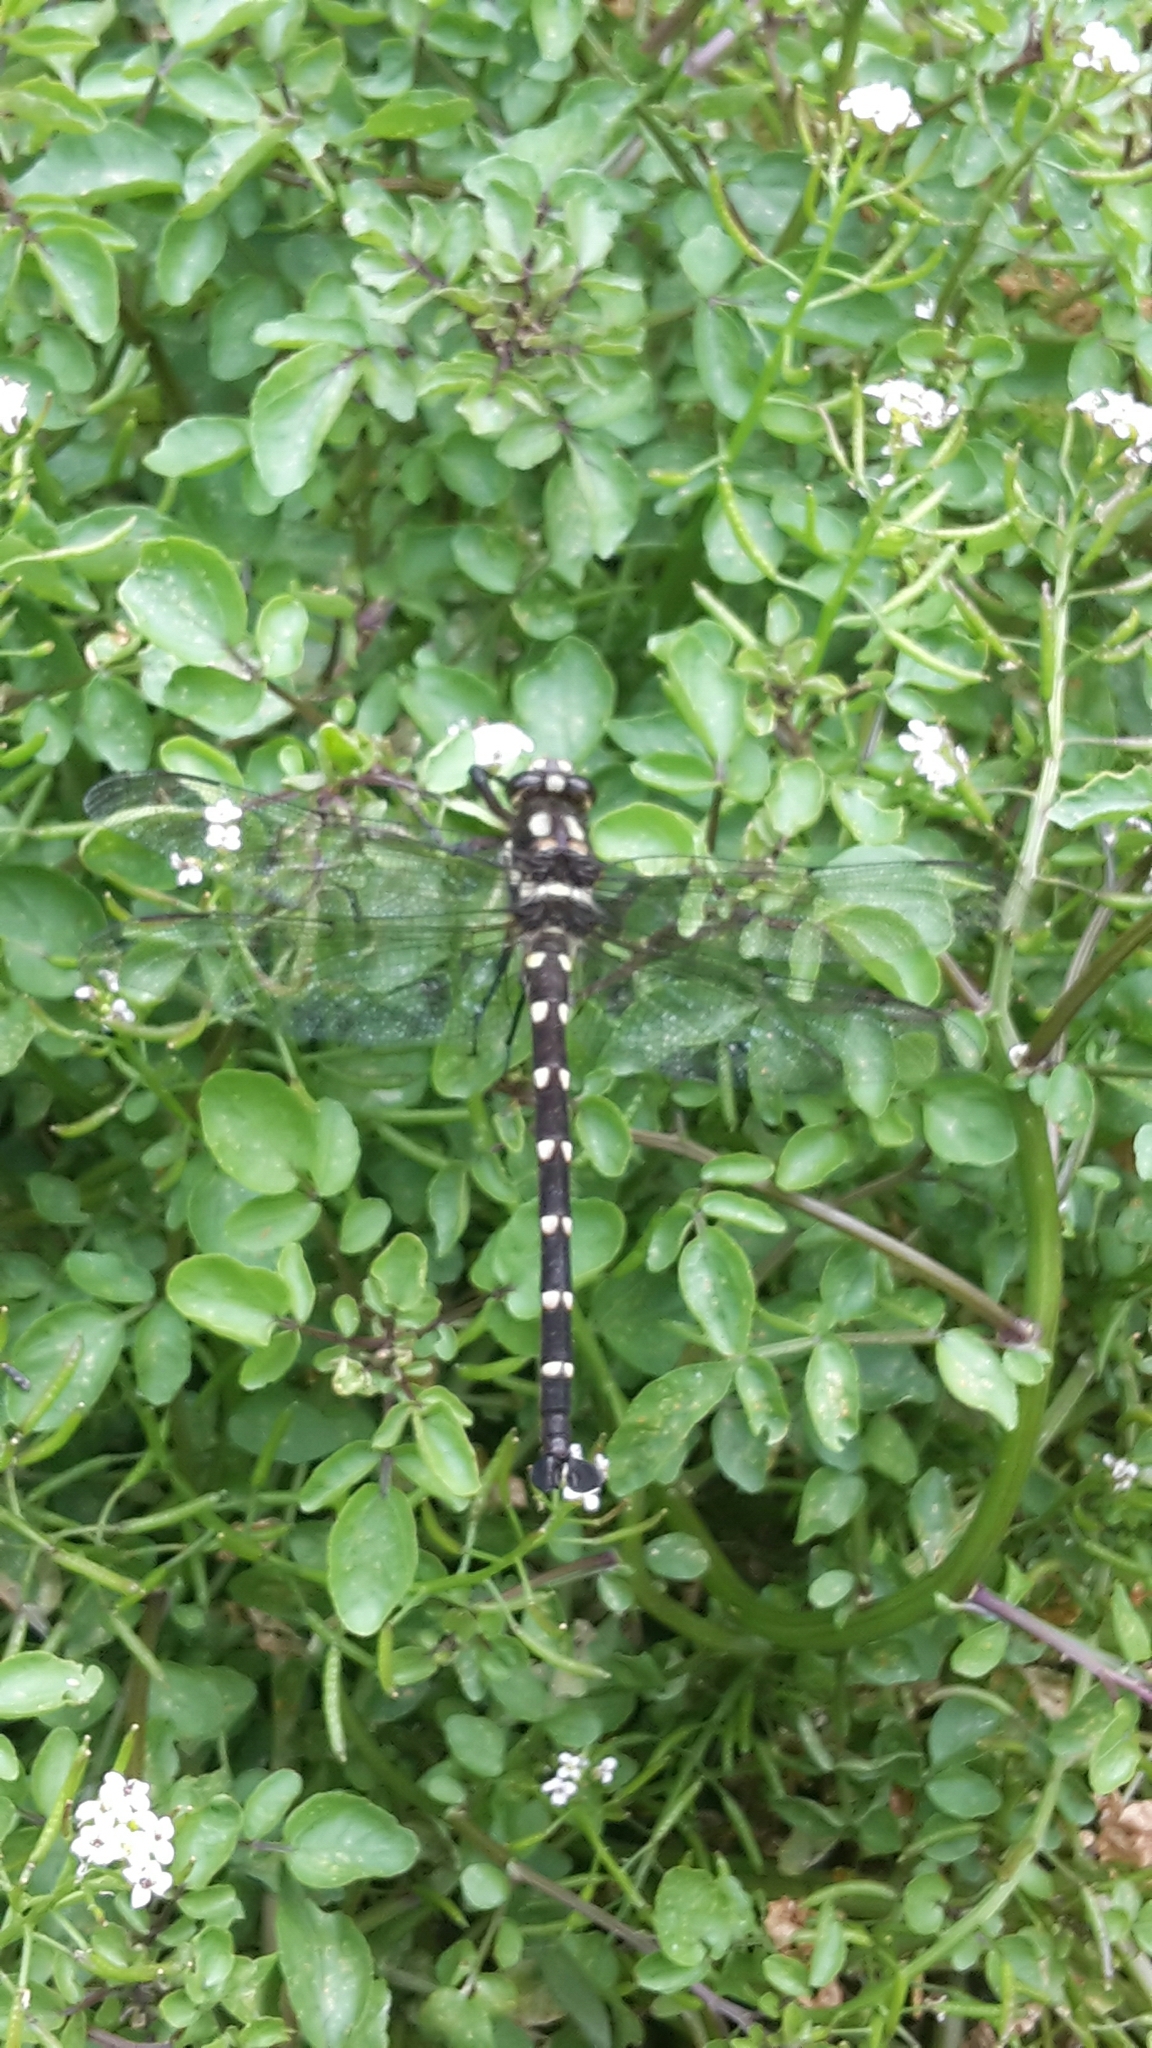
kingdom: Animalia
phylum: Arthropoda
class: Insecta
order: Odonata
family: Petaluridae
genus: Uropetala
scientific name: Uropetala carovei
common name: Bush giant dragonfly
